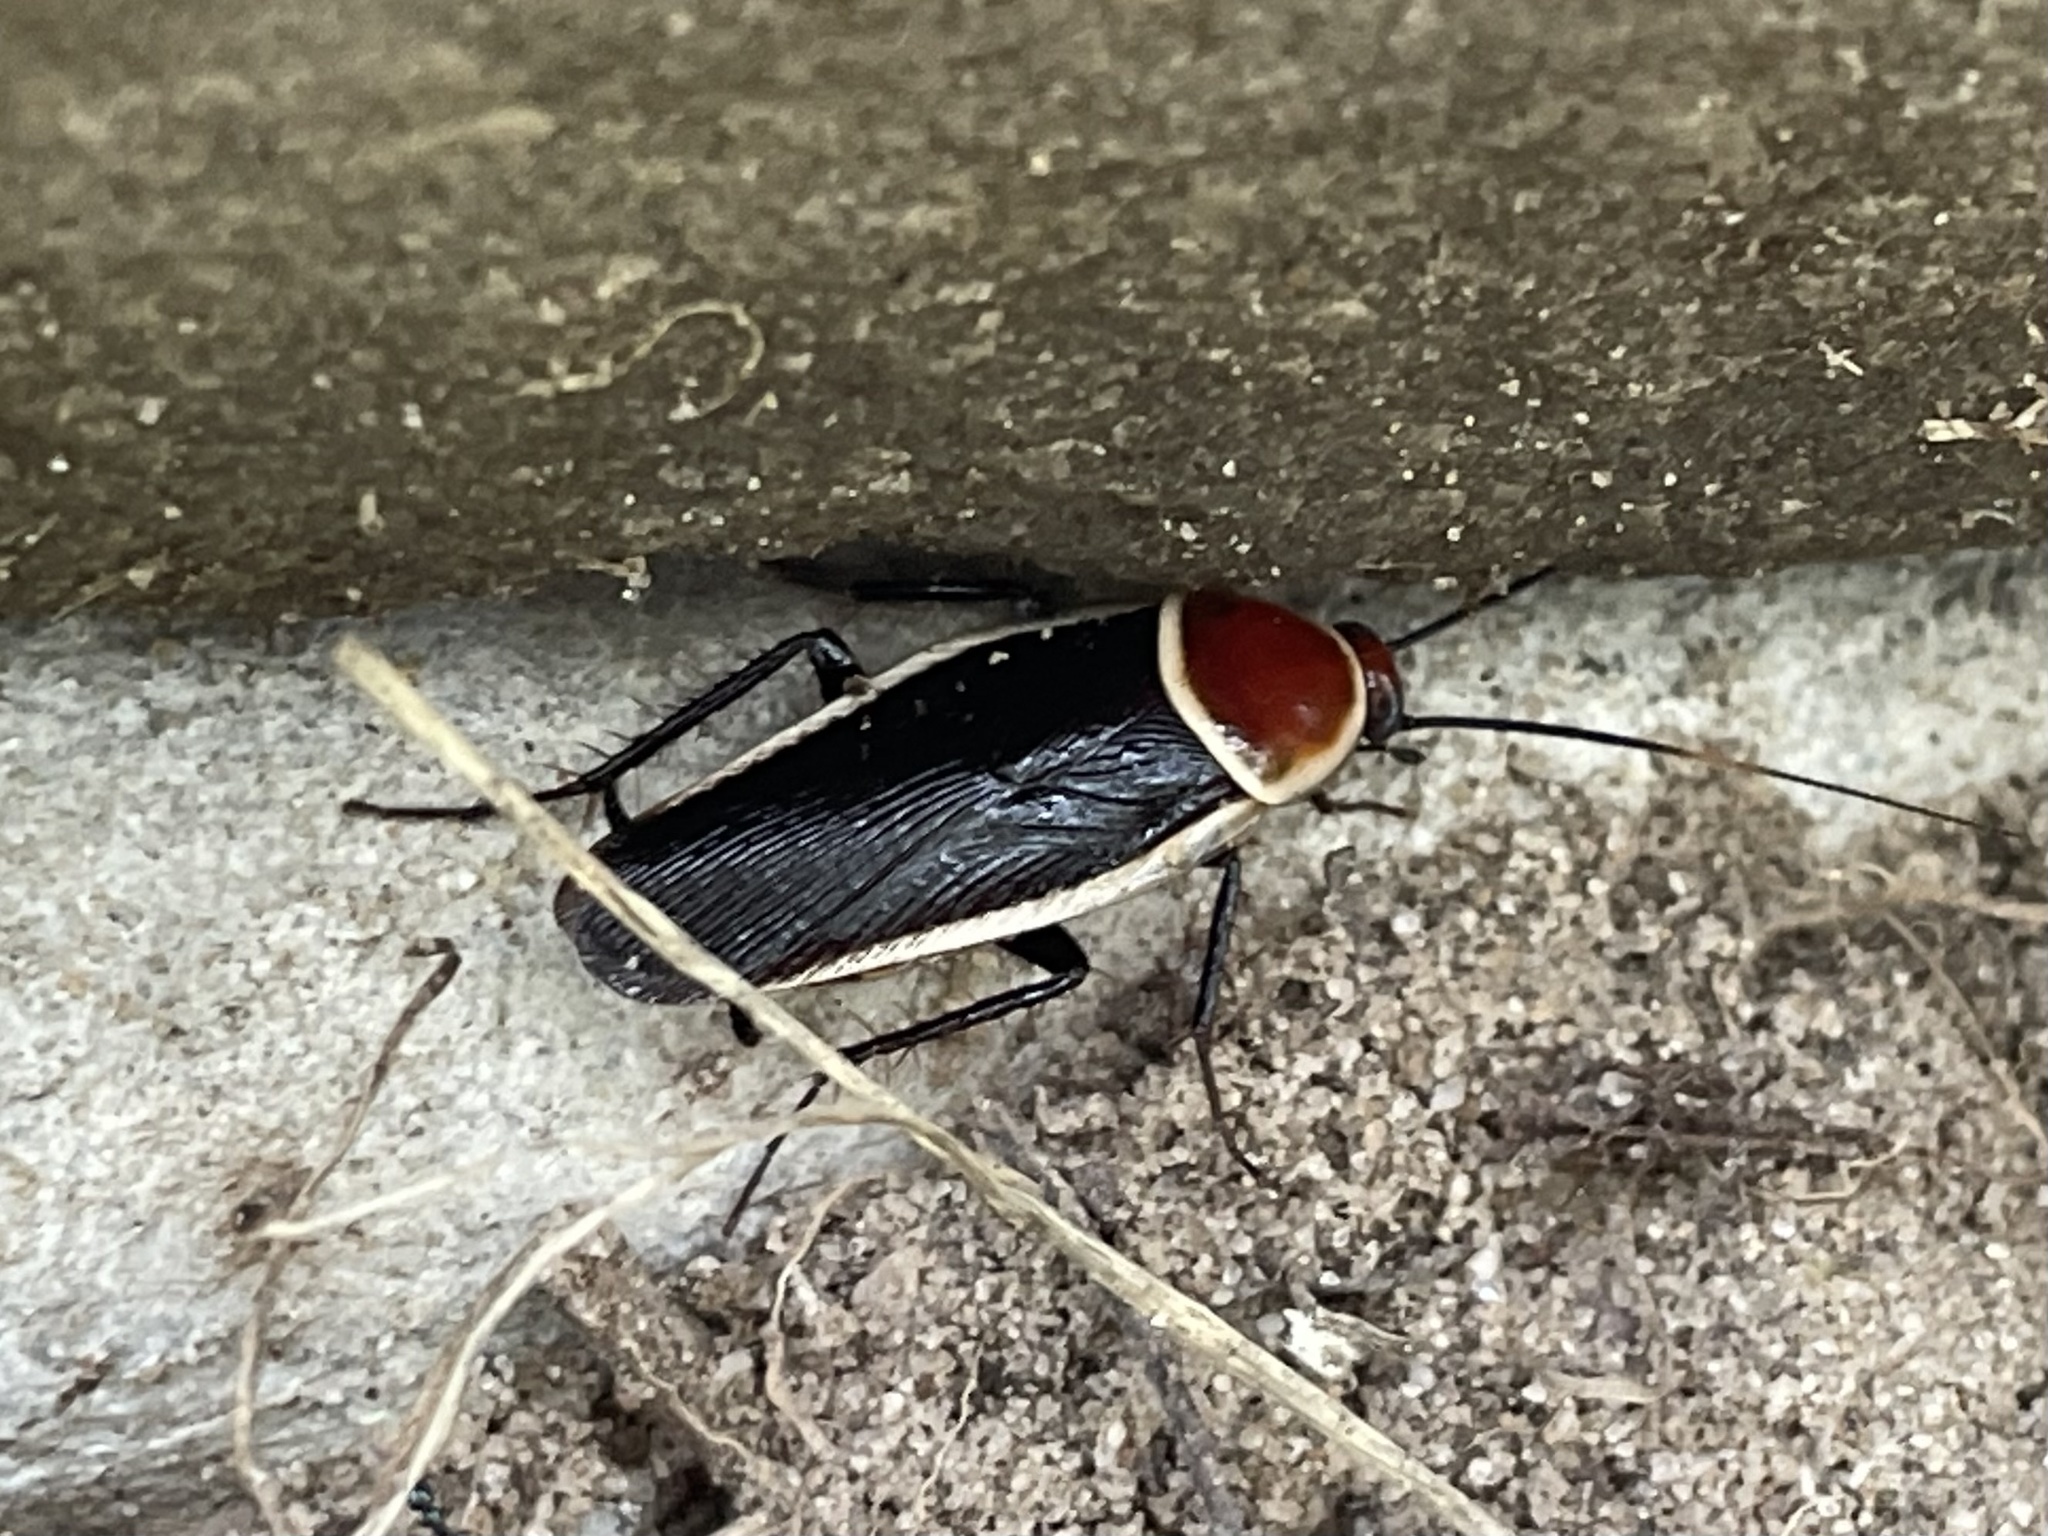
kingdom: Animalia
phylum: Arthropoda
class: Insecta
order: Blattodea
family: Ectobiidae
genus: Pseudomops
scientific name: Pseudomops septentrionalis
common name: Pale-bordered field cockroach
